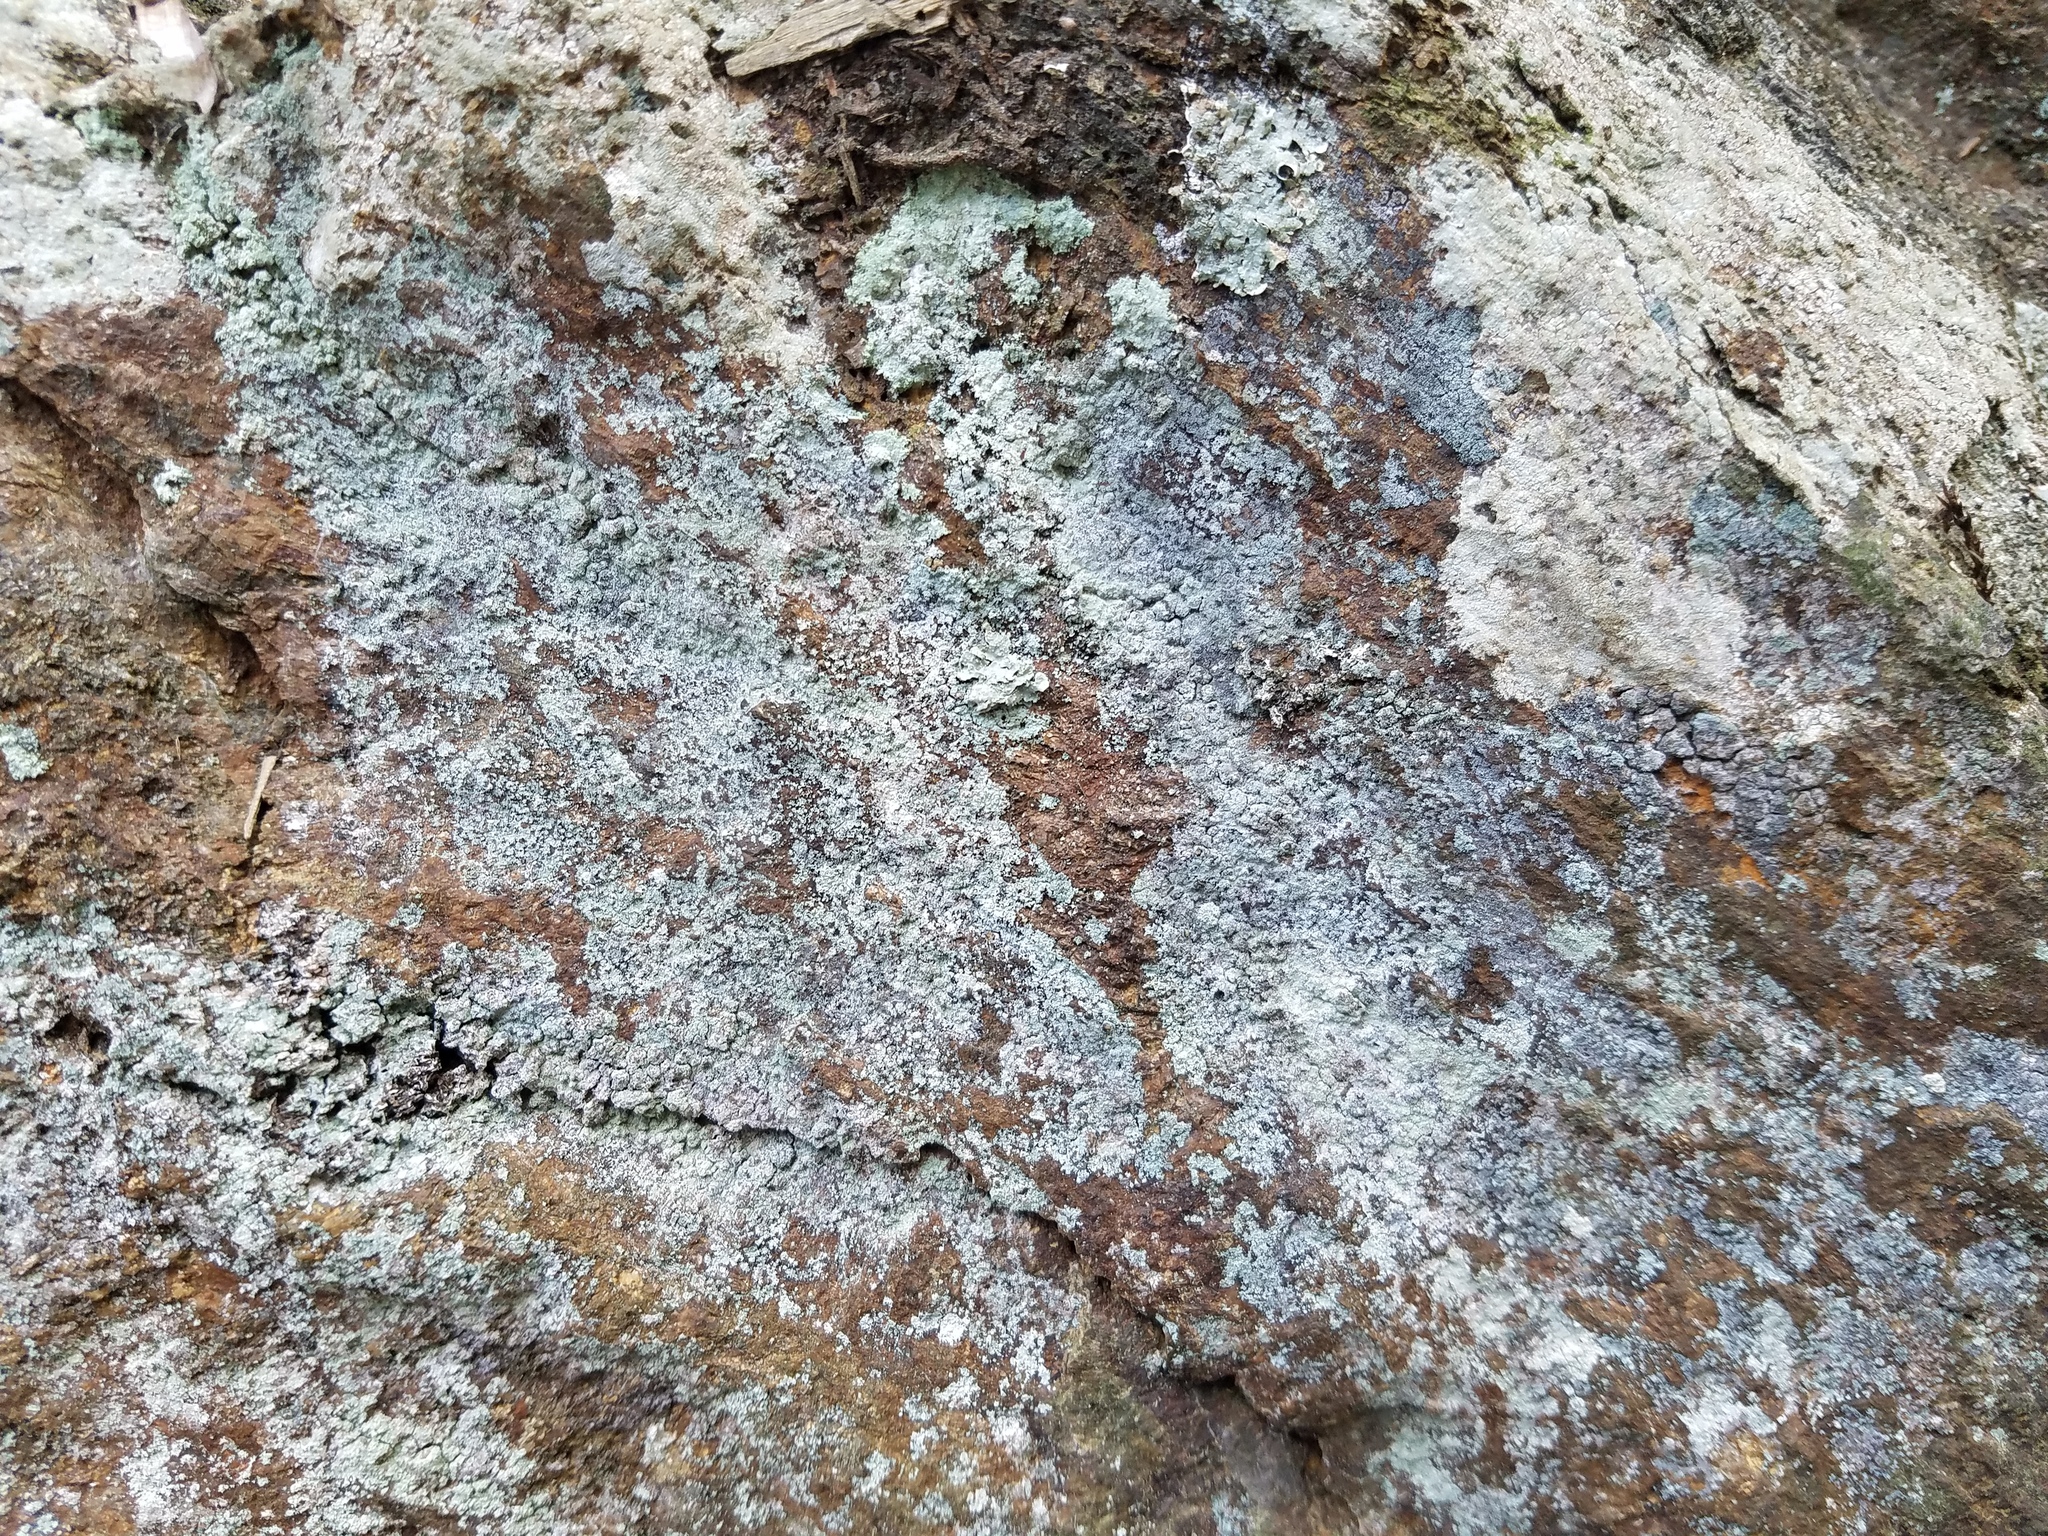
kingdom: Fungi
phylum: Ascomycota
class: Lecanoromycetes
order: Teloschistales
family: Leprocaulaceae
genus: Leprocaulon
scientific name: Leprocaulon adhaerens
